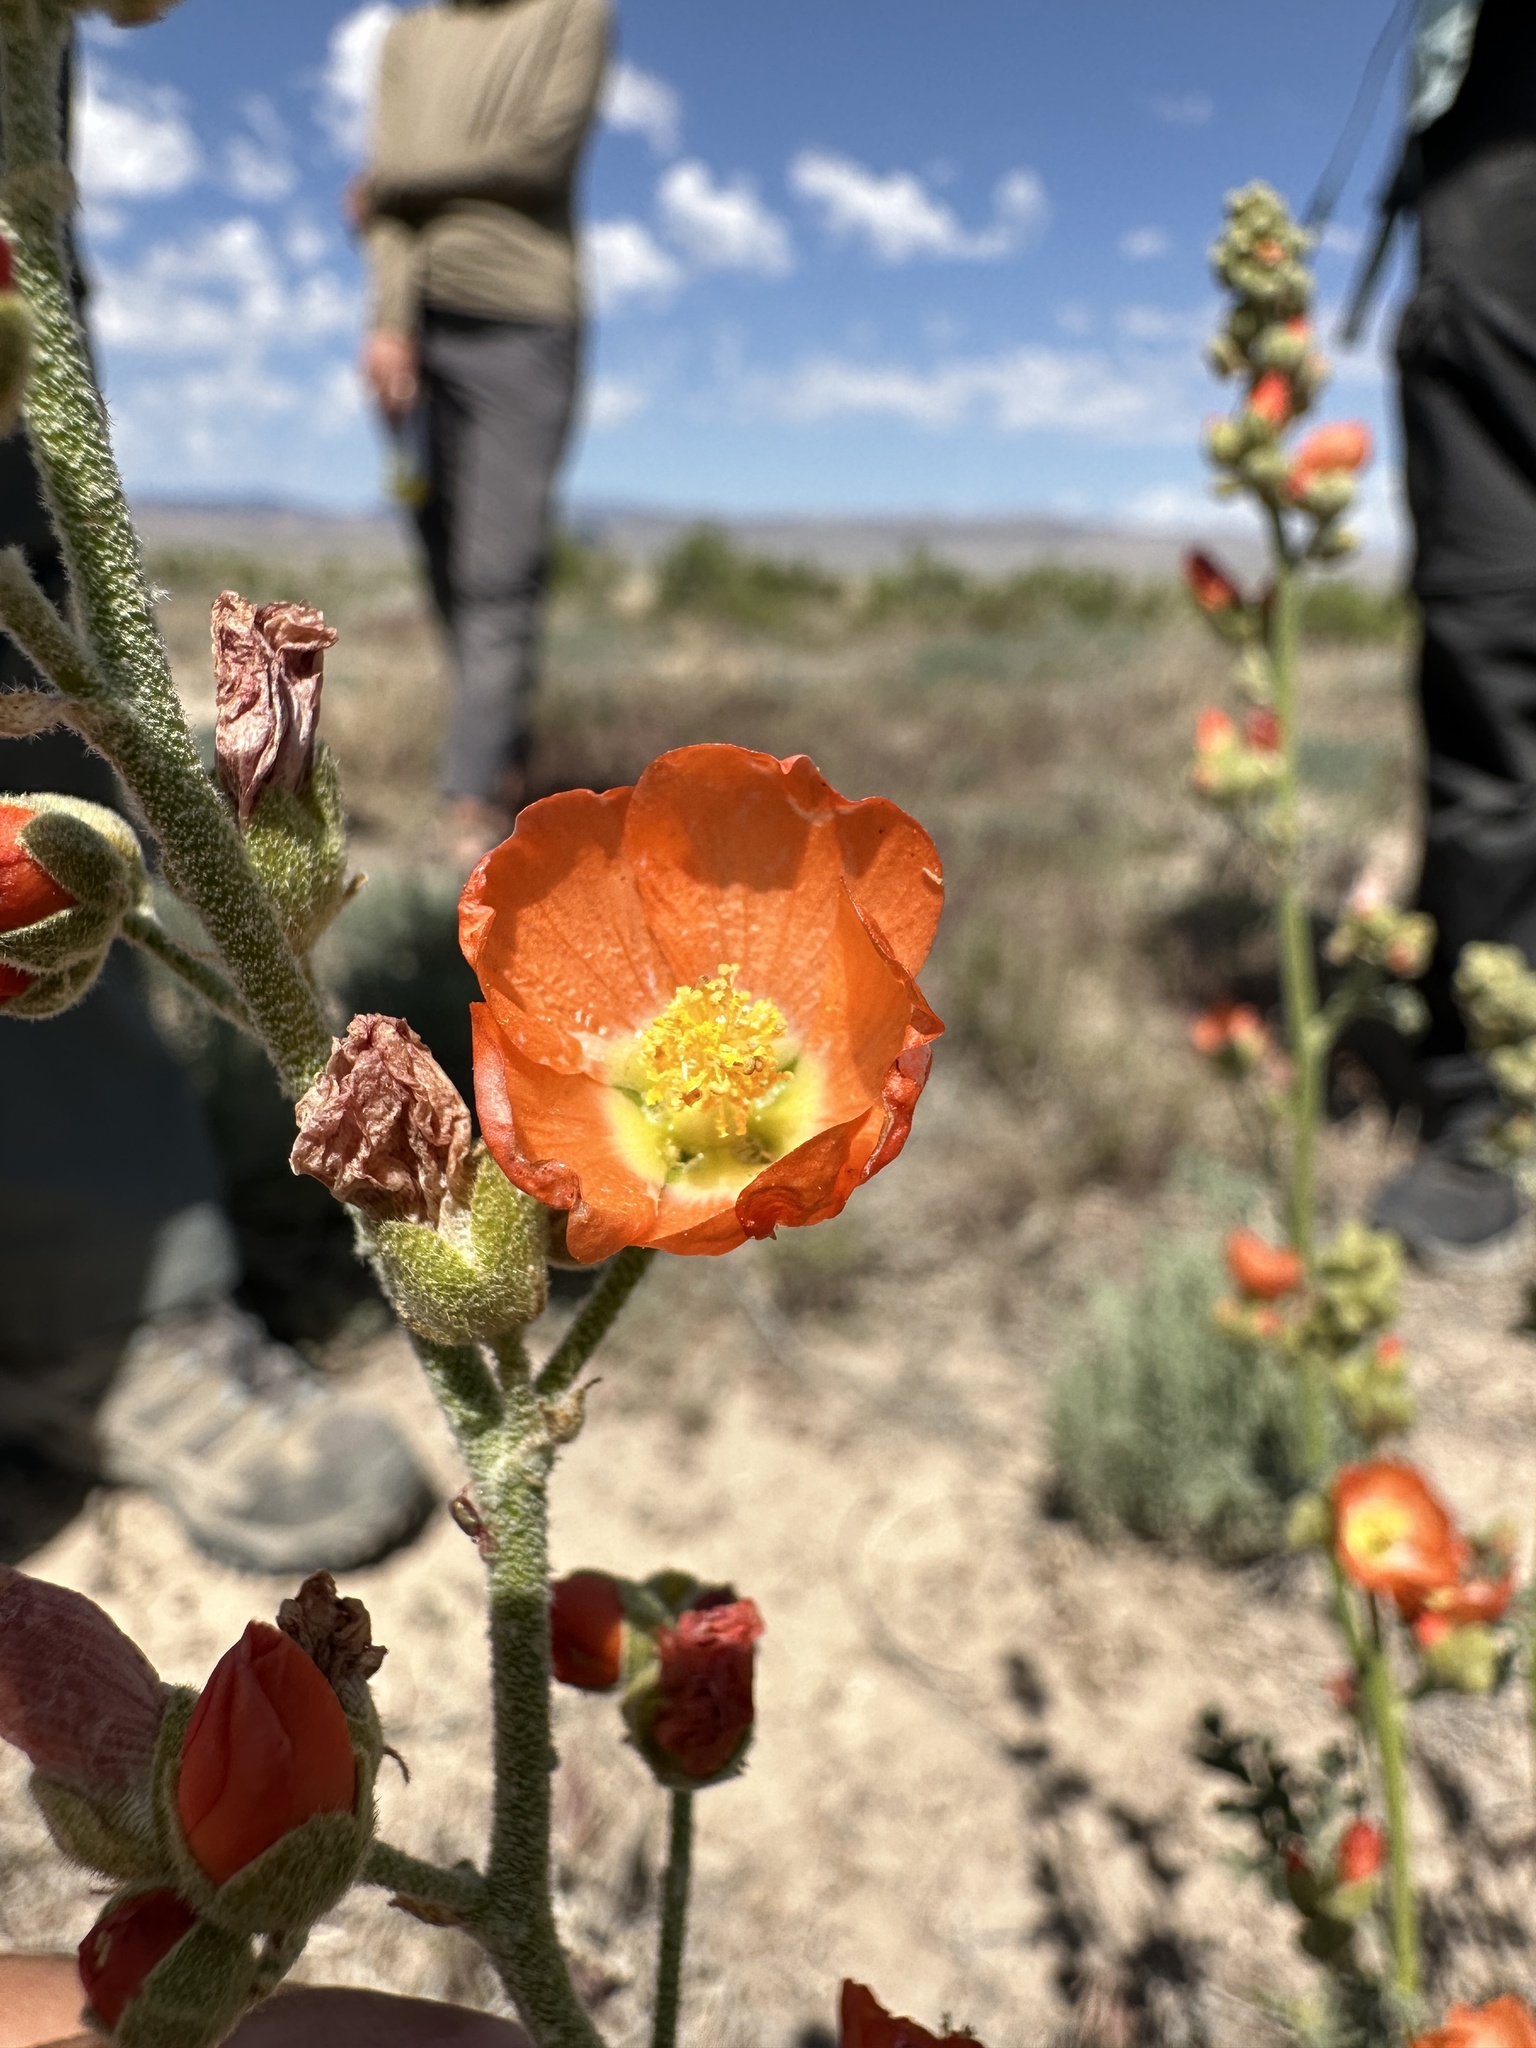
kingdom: Plantae
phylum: Tracheophyta
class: Magnoliopsida
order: Malvales
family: Malvaceae
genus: Sphaeralcea
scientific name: Sphaeralcea grossulariifolia
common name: Current-leaf globe-mallow
